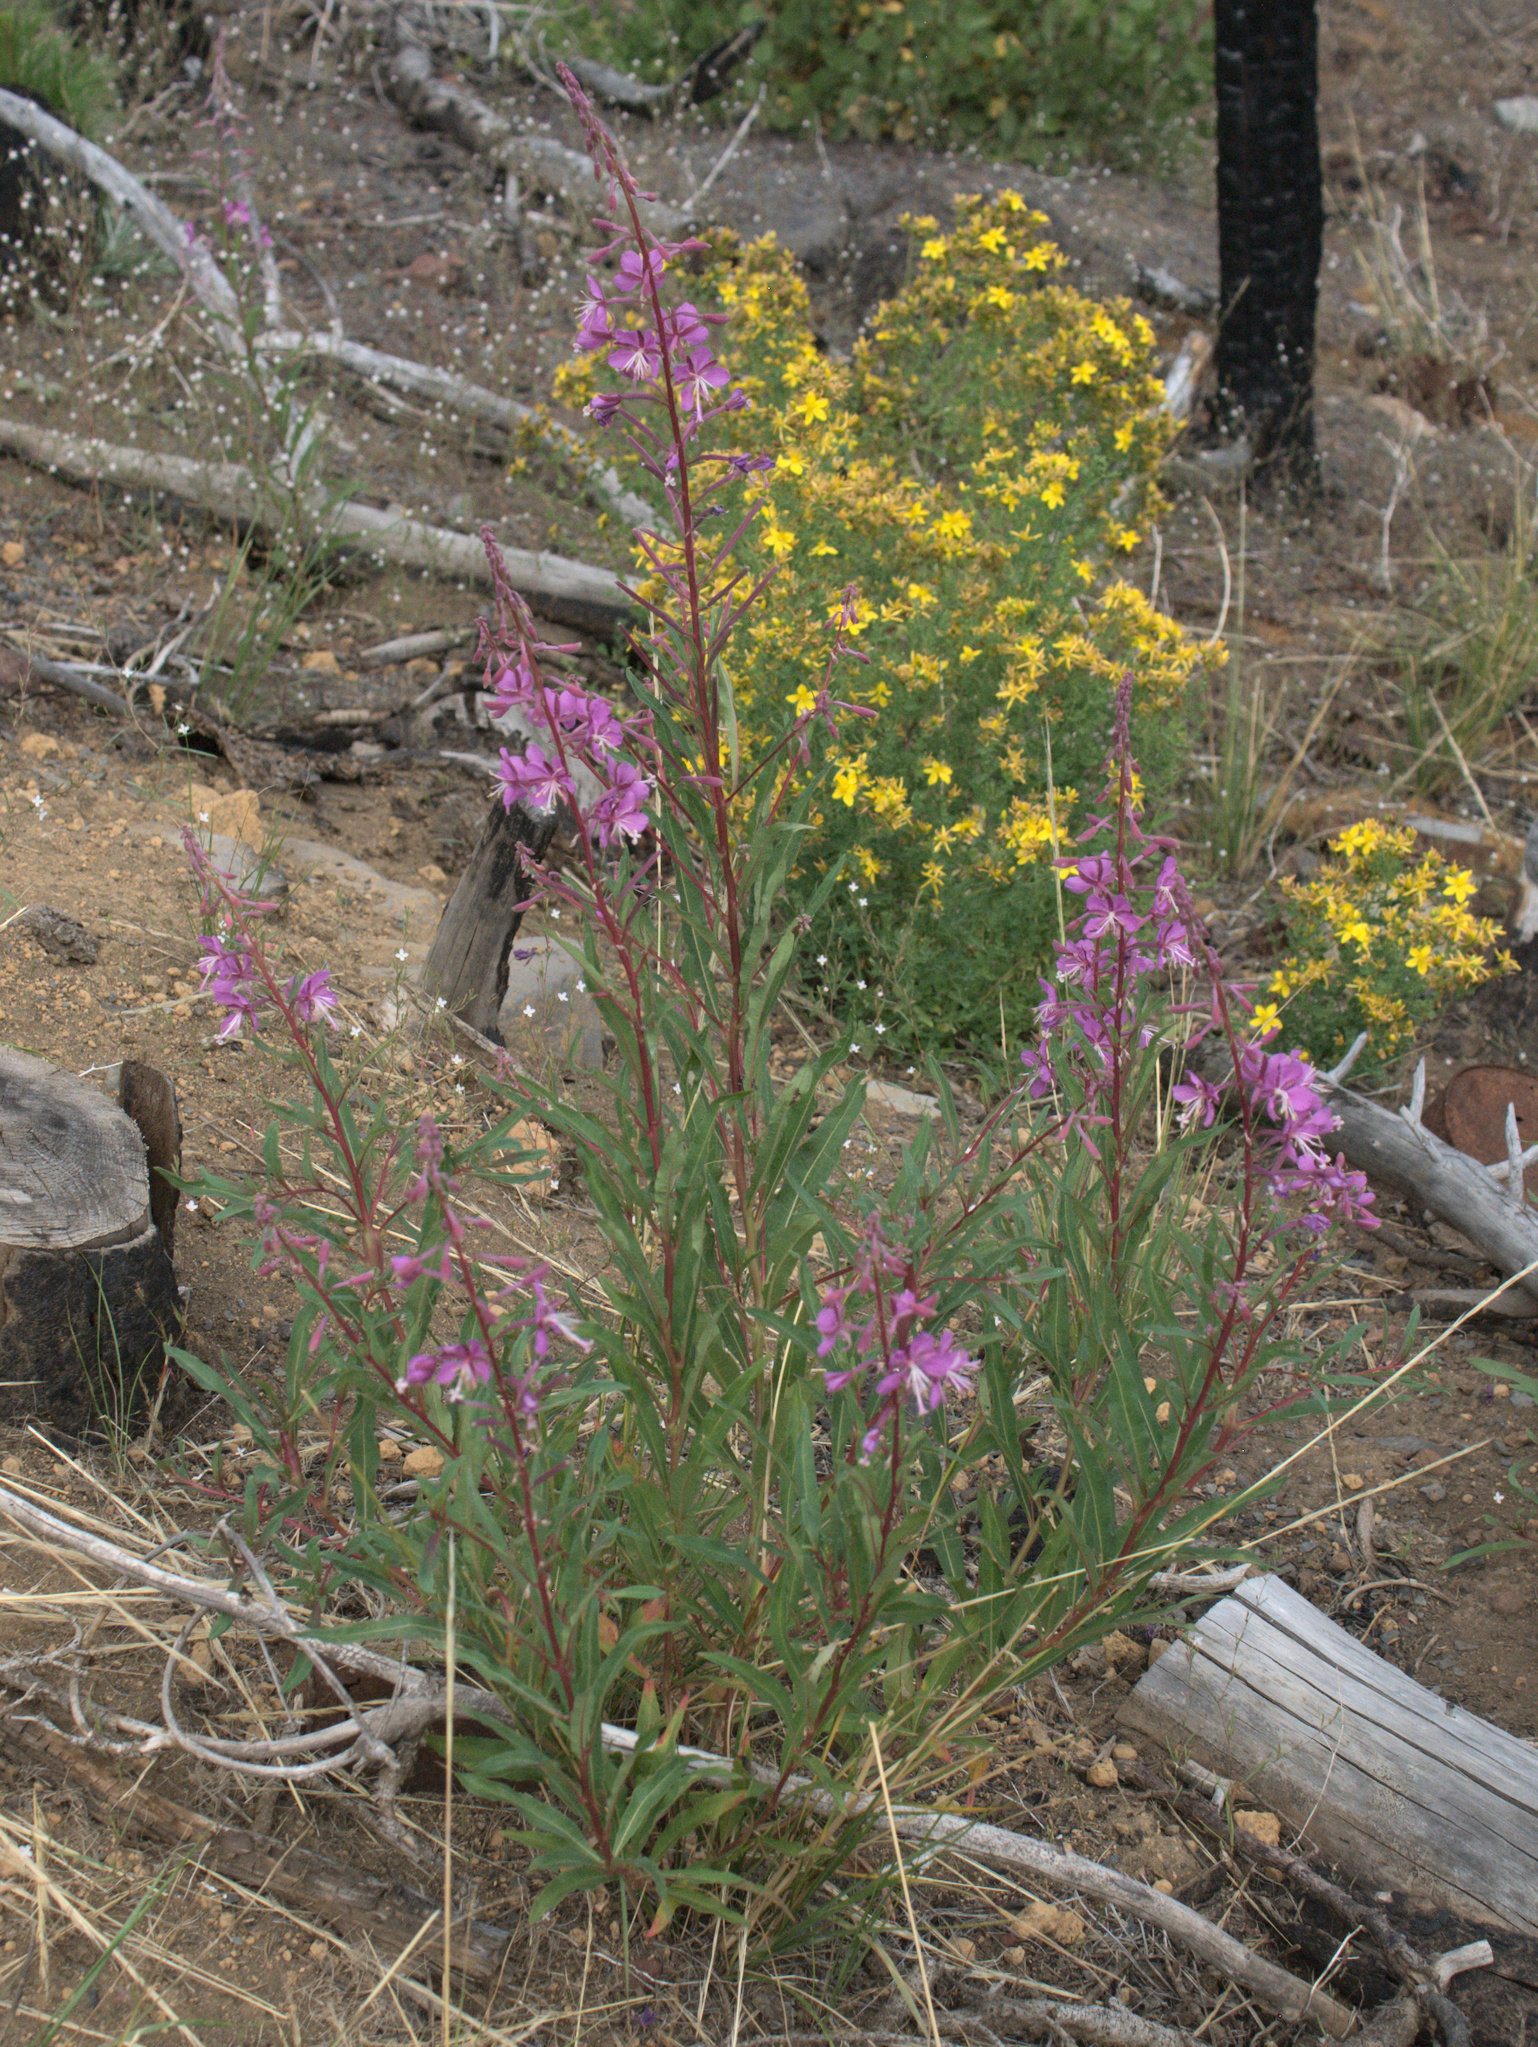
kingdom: Plantae
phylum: Tracheophyta
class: Magnoliopsida
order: Myrtales
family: Onagraceae
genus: Chamaenerion
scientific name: Chamaenerion angustifolium
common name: Fireweed
